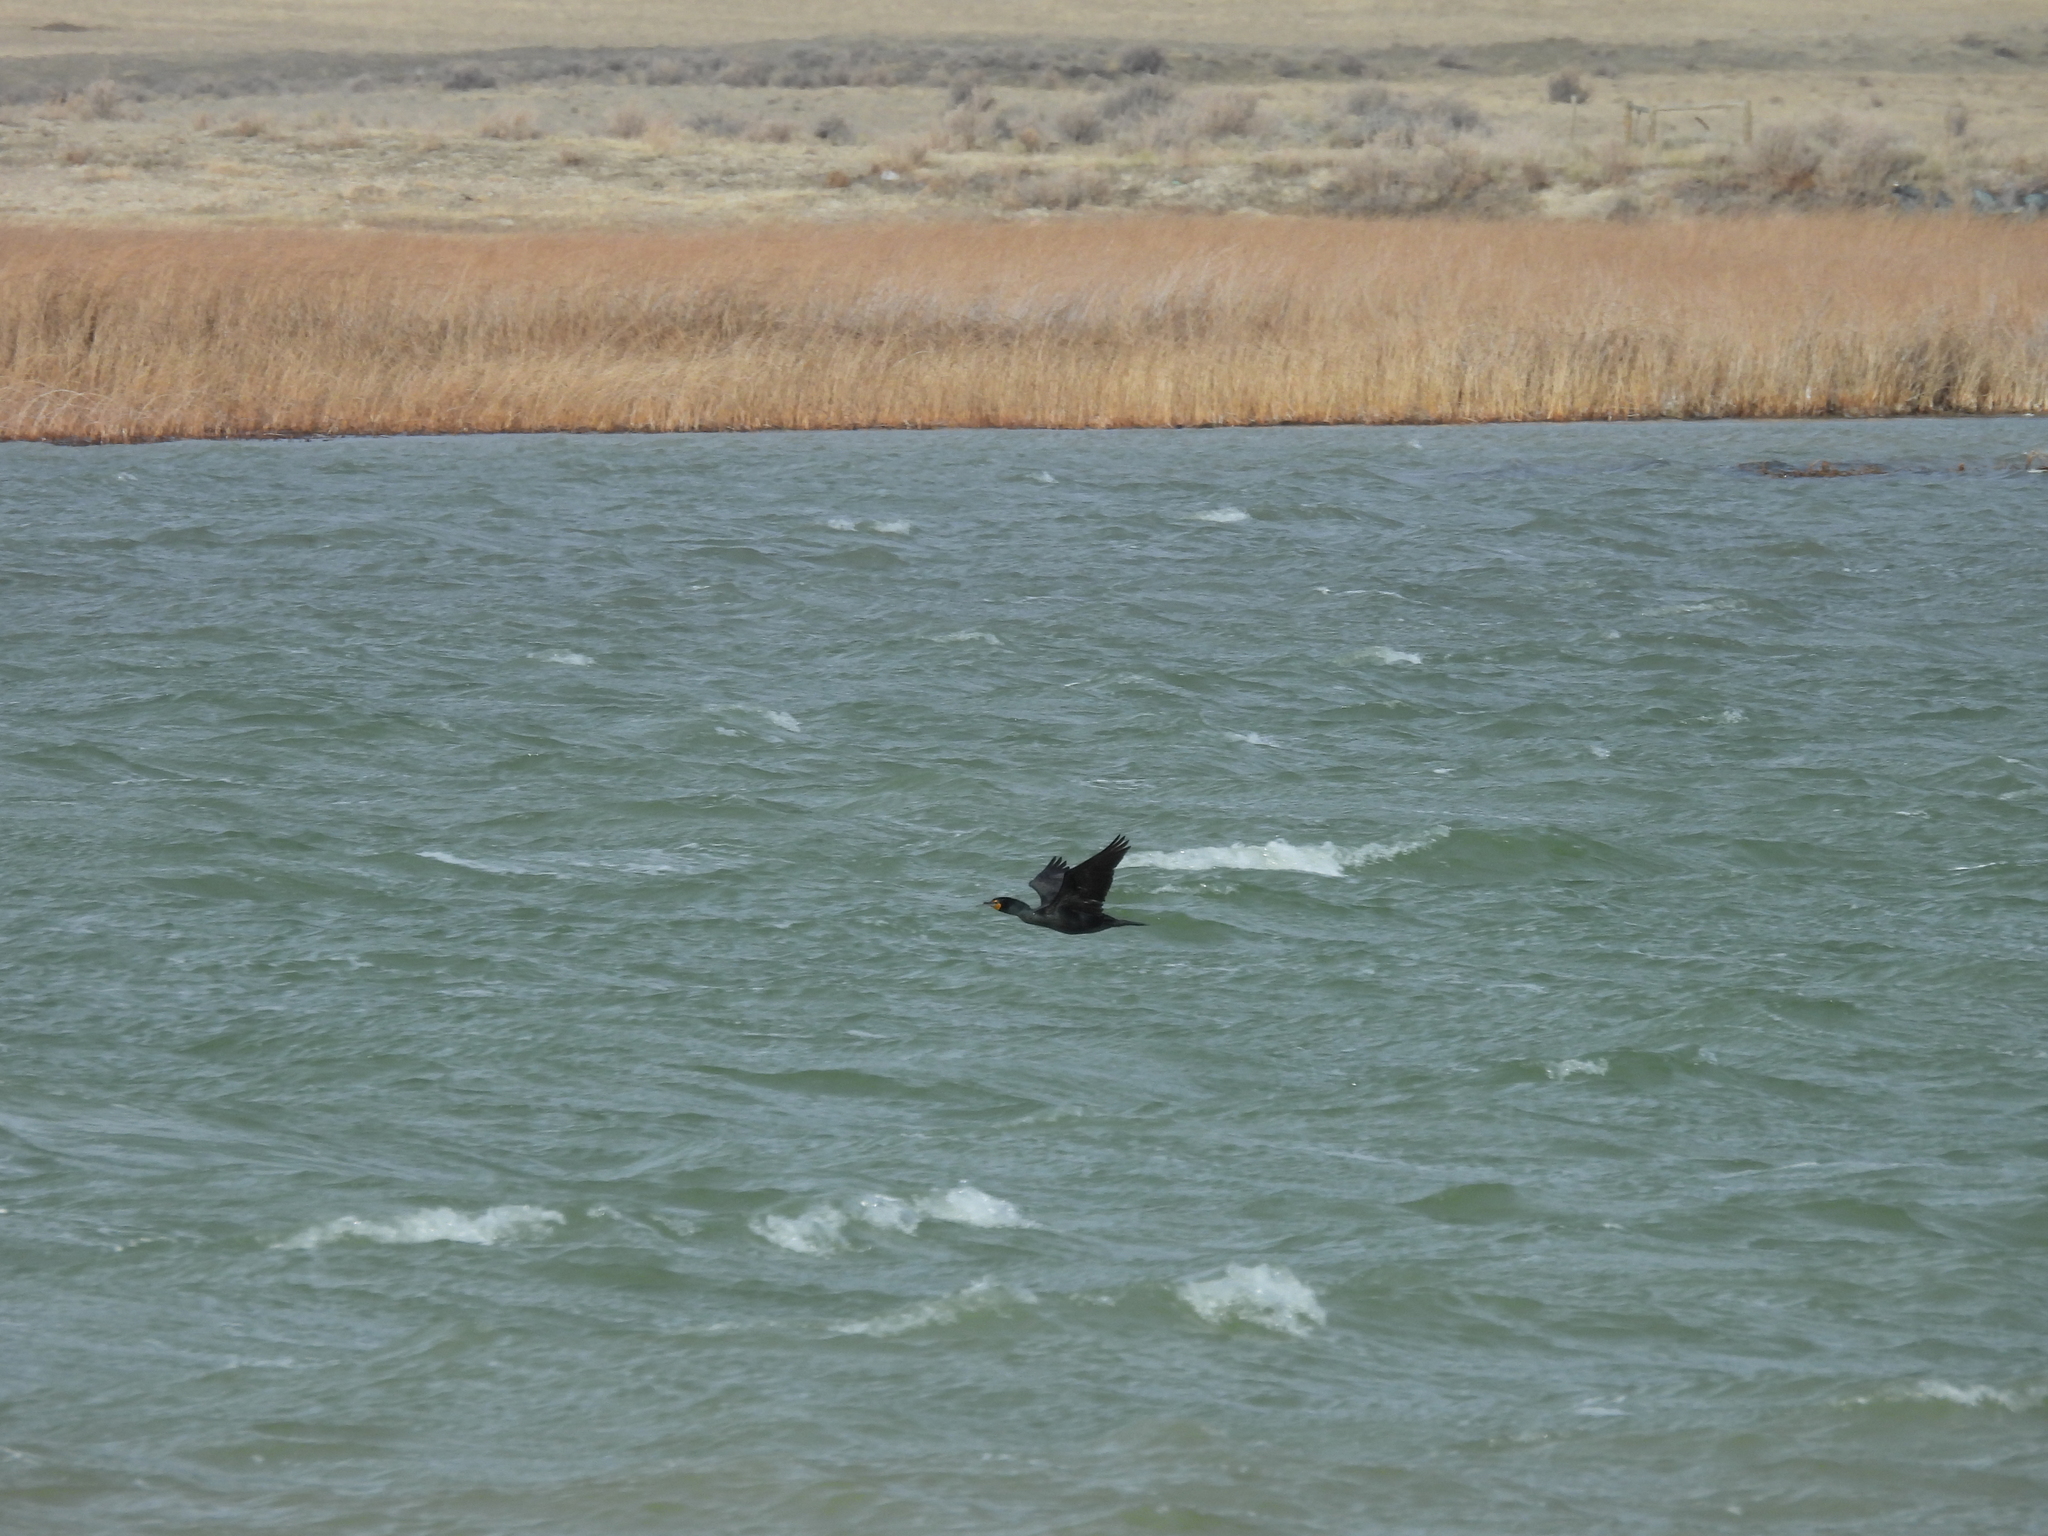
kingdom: Animalia
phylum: Chordata
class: Aves
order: Suliformes
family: Phalacrocoracidae
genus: Phalacrocorax
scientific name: Phalacrocorax auritus
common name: Double-crested cormorant
